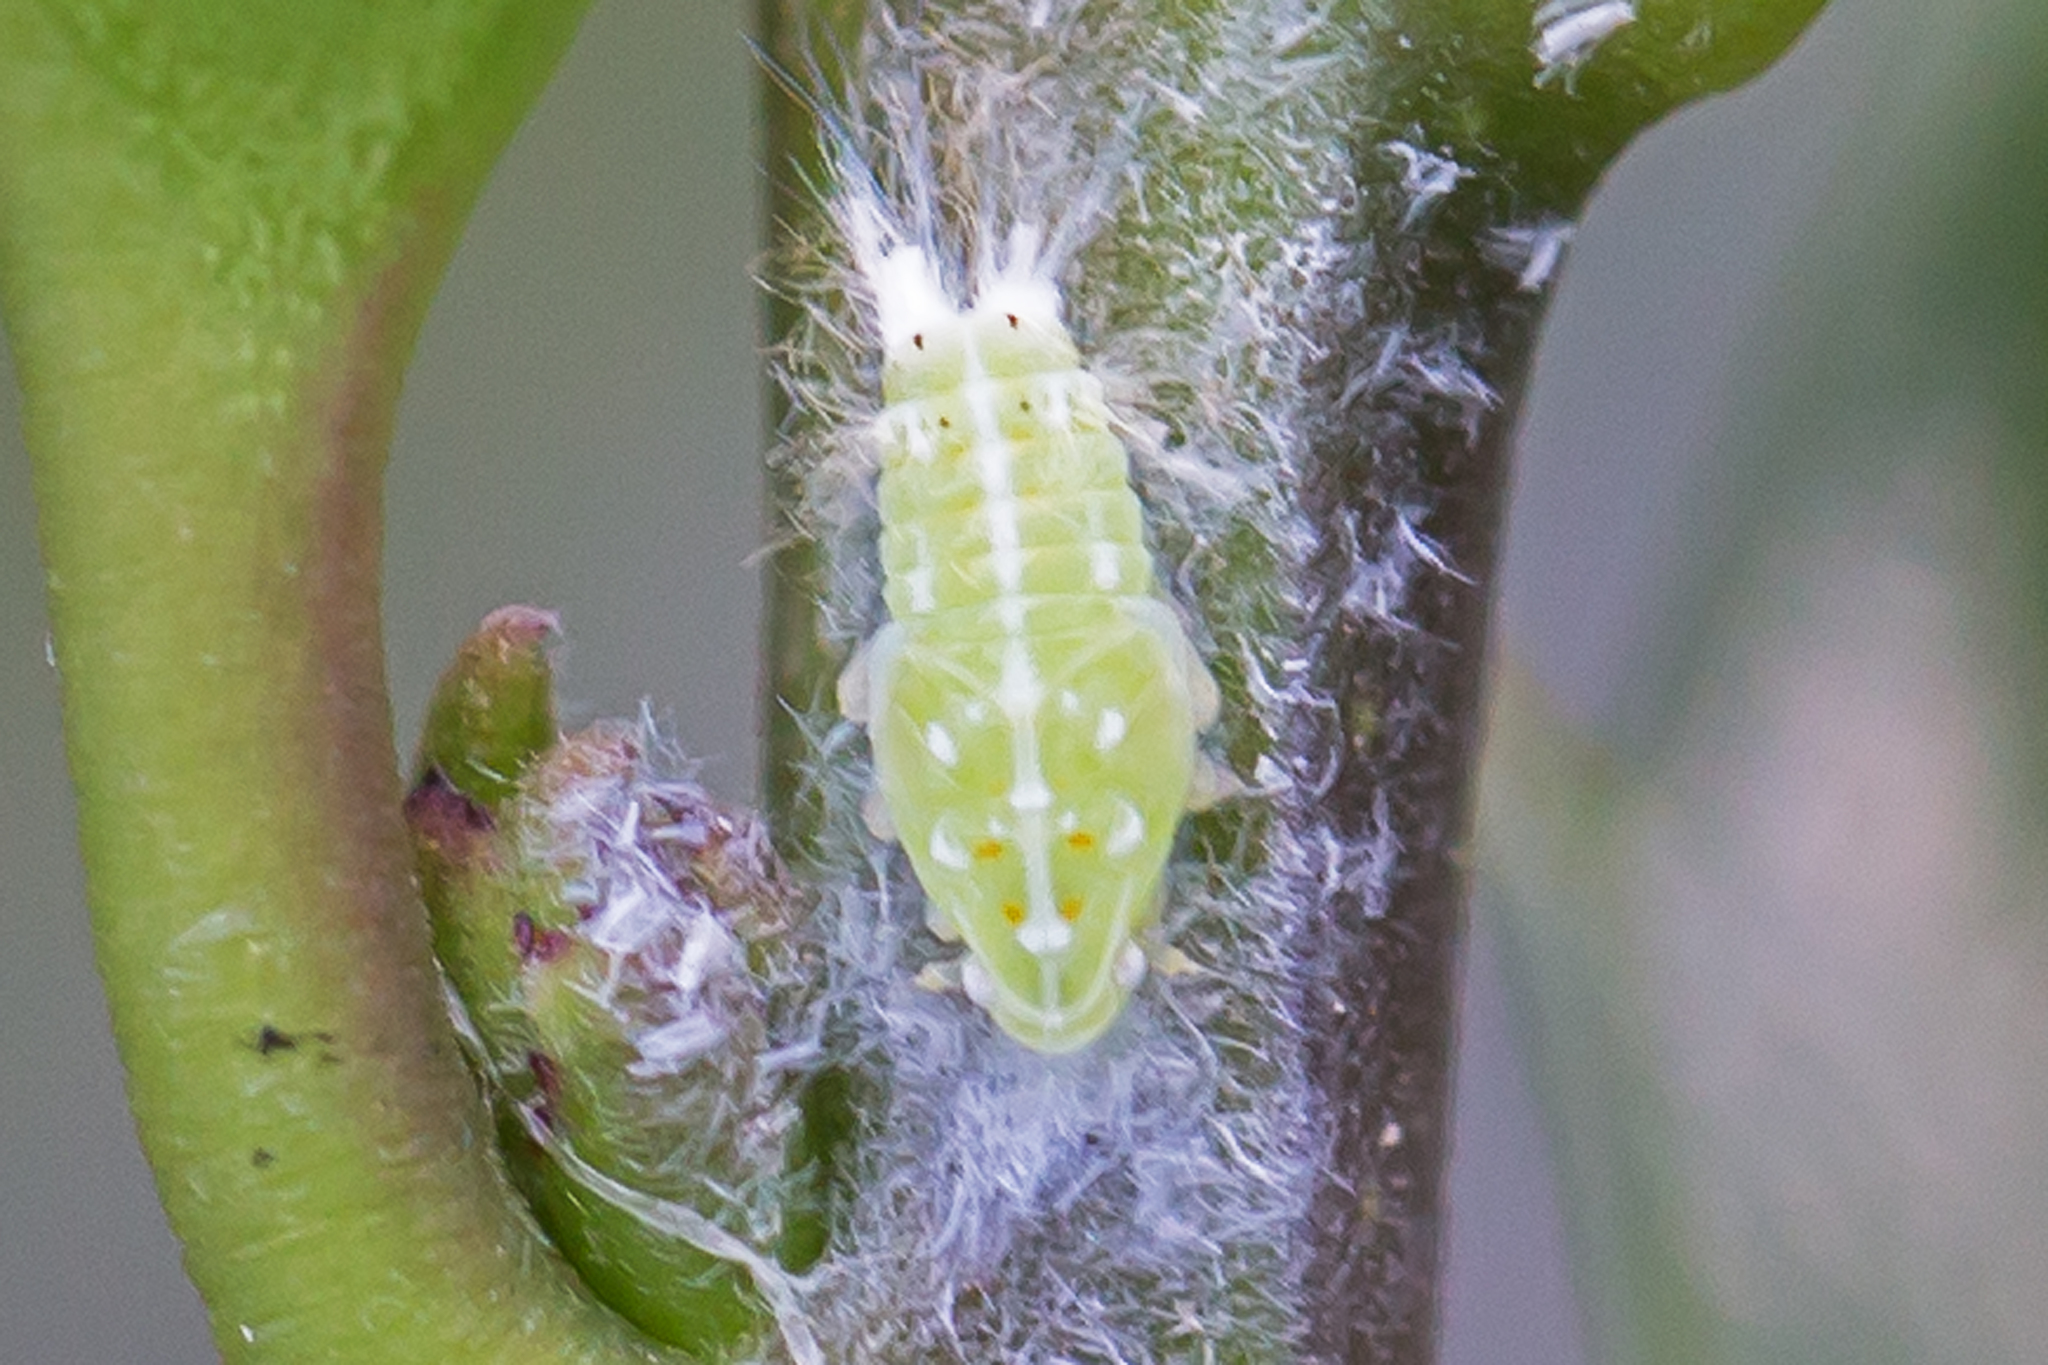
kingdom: Animalia
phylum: Arthropoda
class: Insecta
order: Hemiptera
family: Flatidae
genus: Ormenoides
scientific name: Ormenoides venusta
